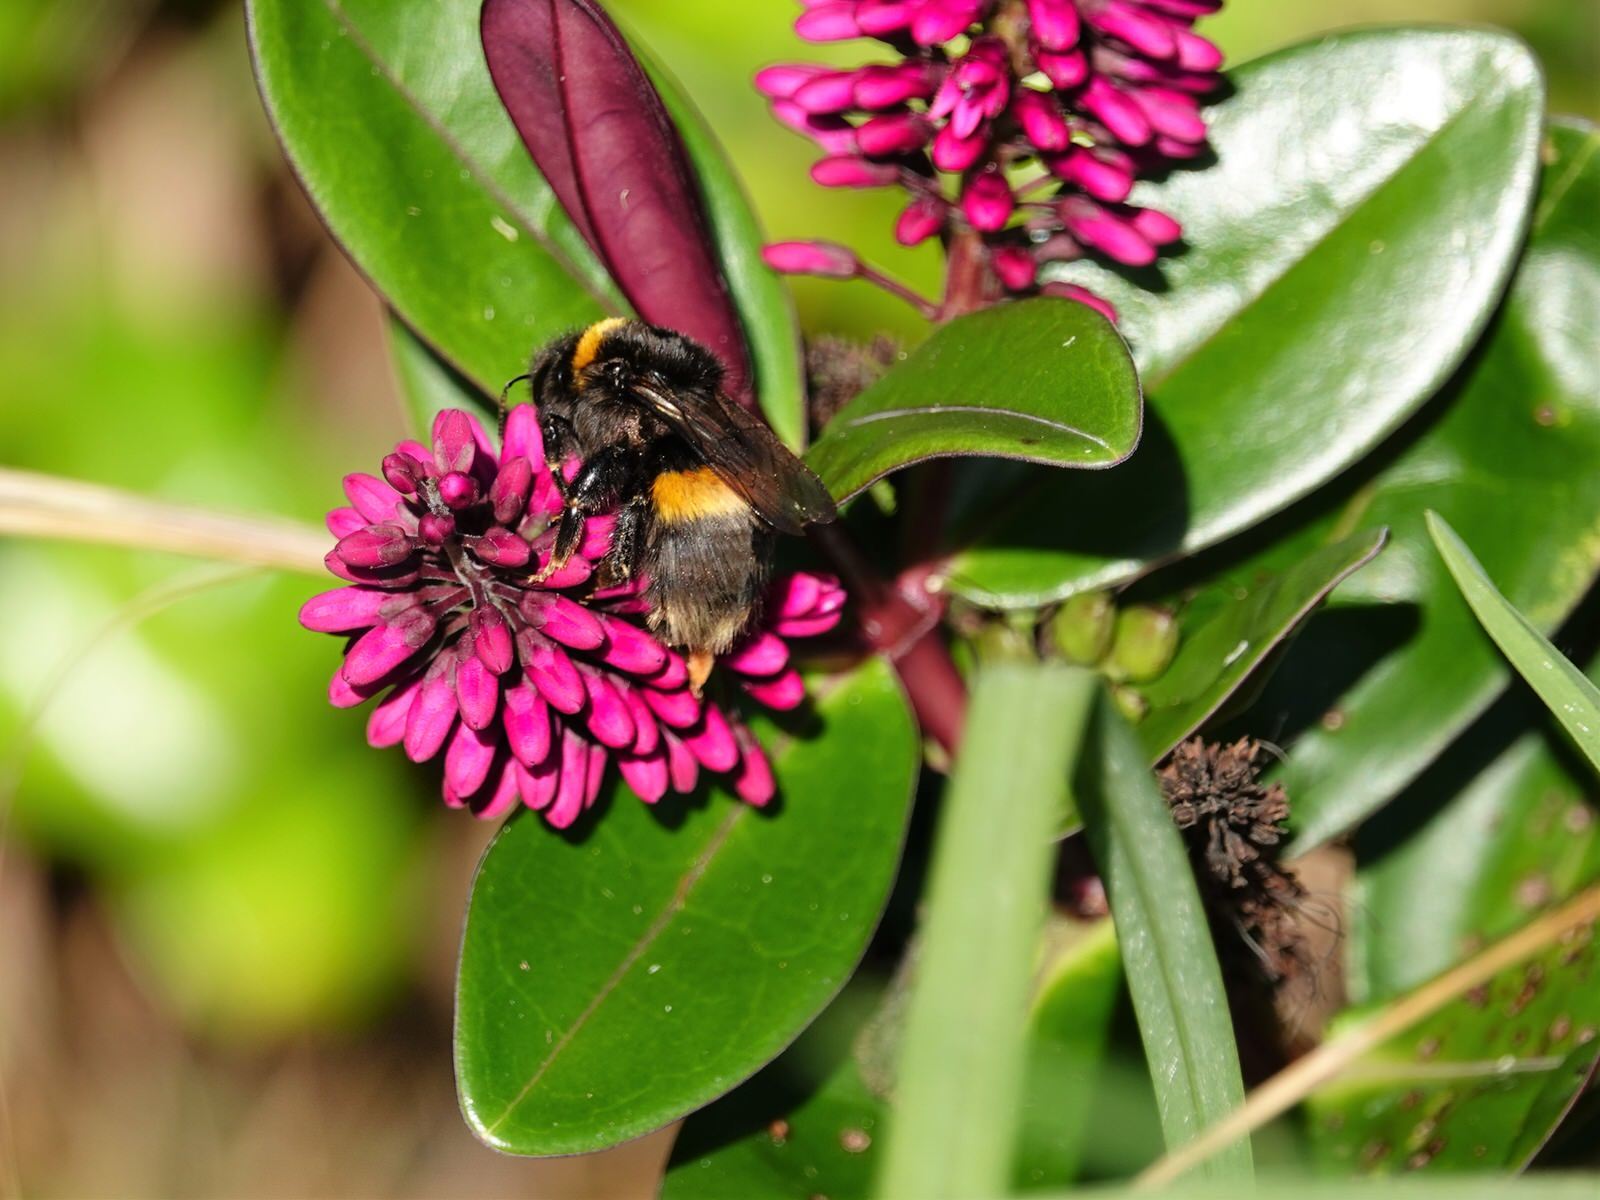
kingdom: Animalia
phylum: Arthropoda
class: Insecta
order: Hymenoptera
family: Apidae
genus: Bombus
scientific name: Bombus terrestris
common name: Buff-tailed bumblebee
